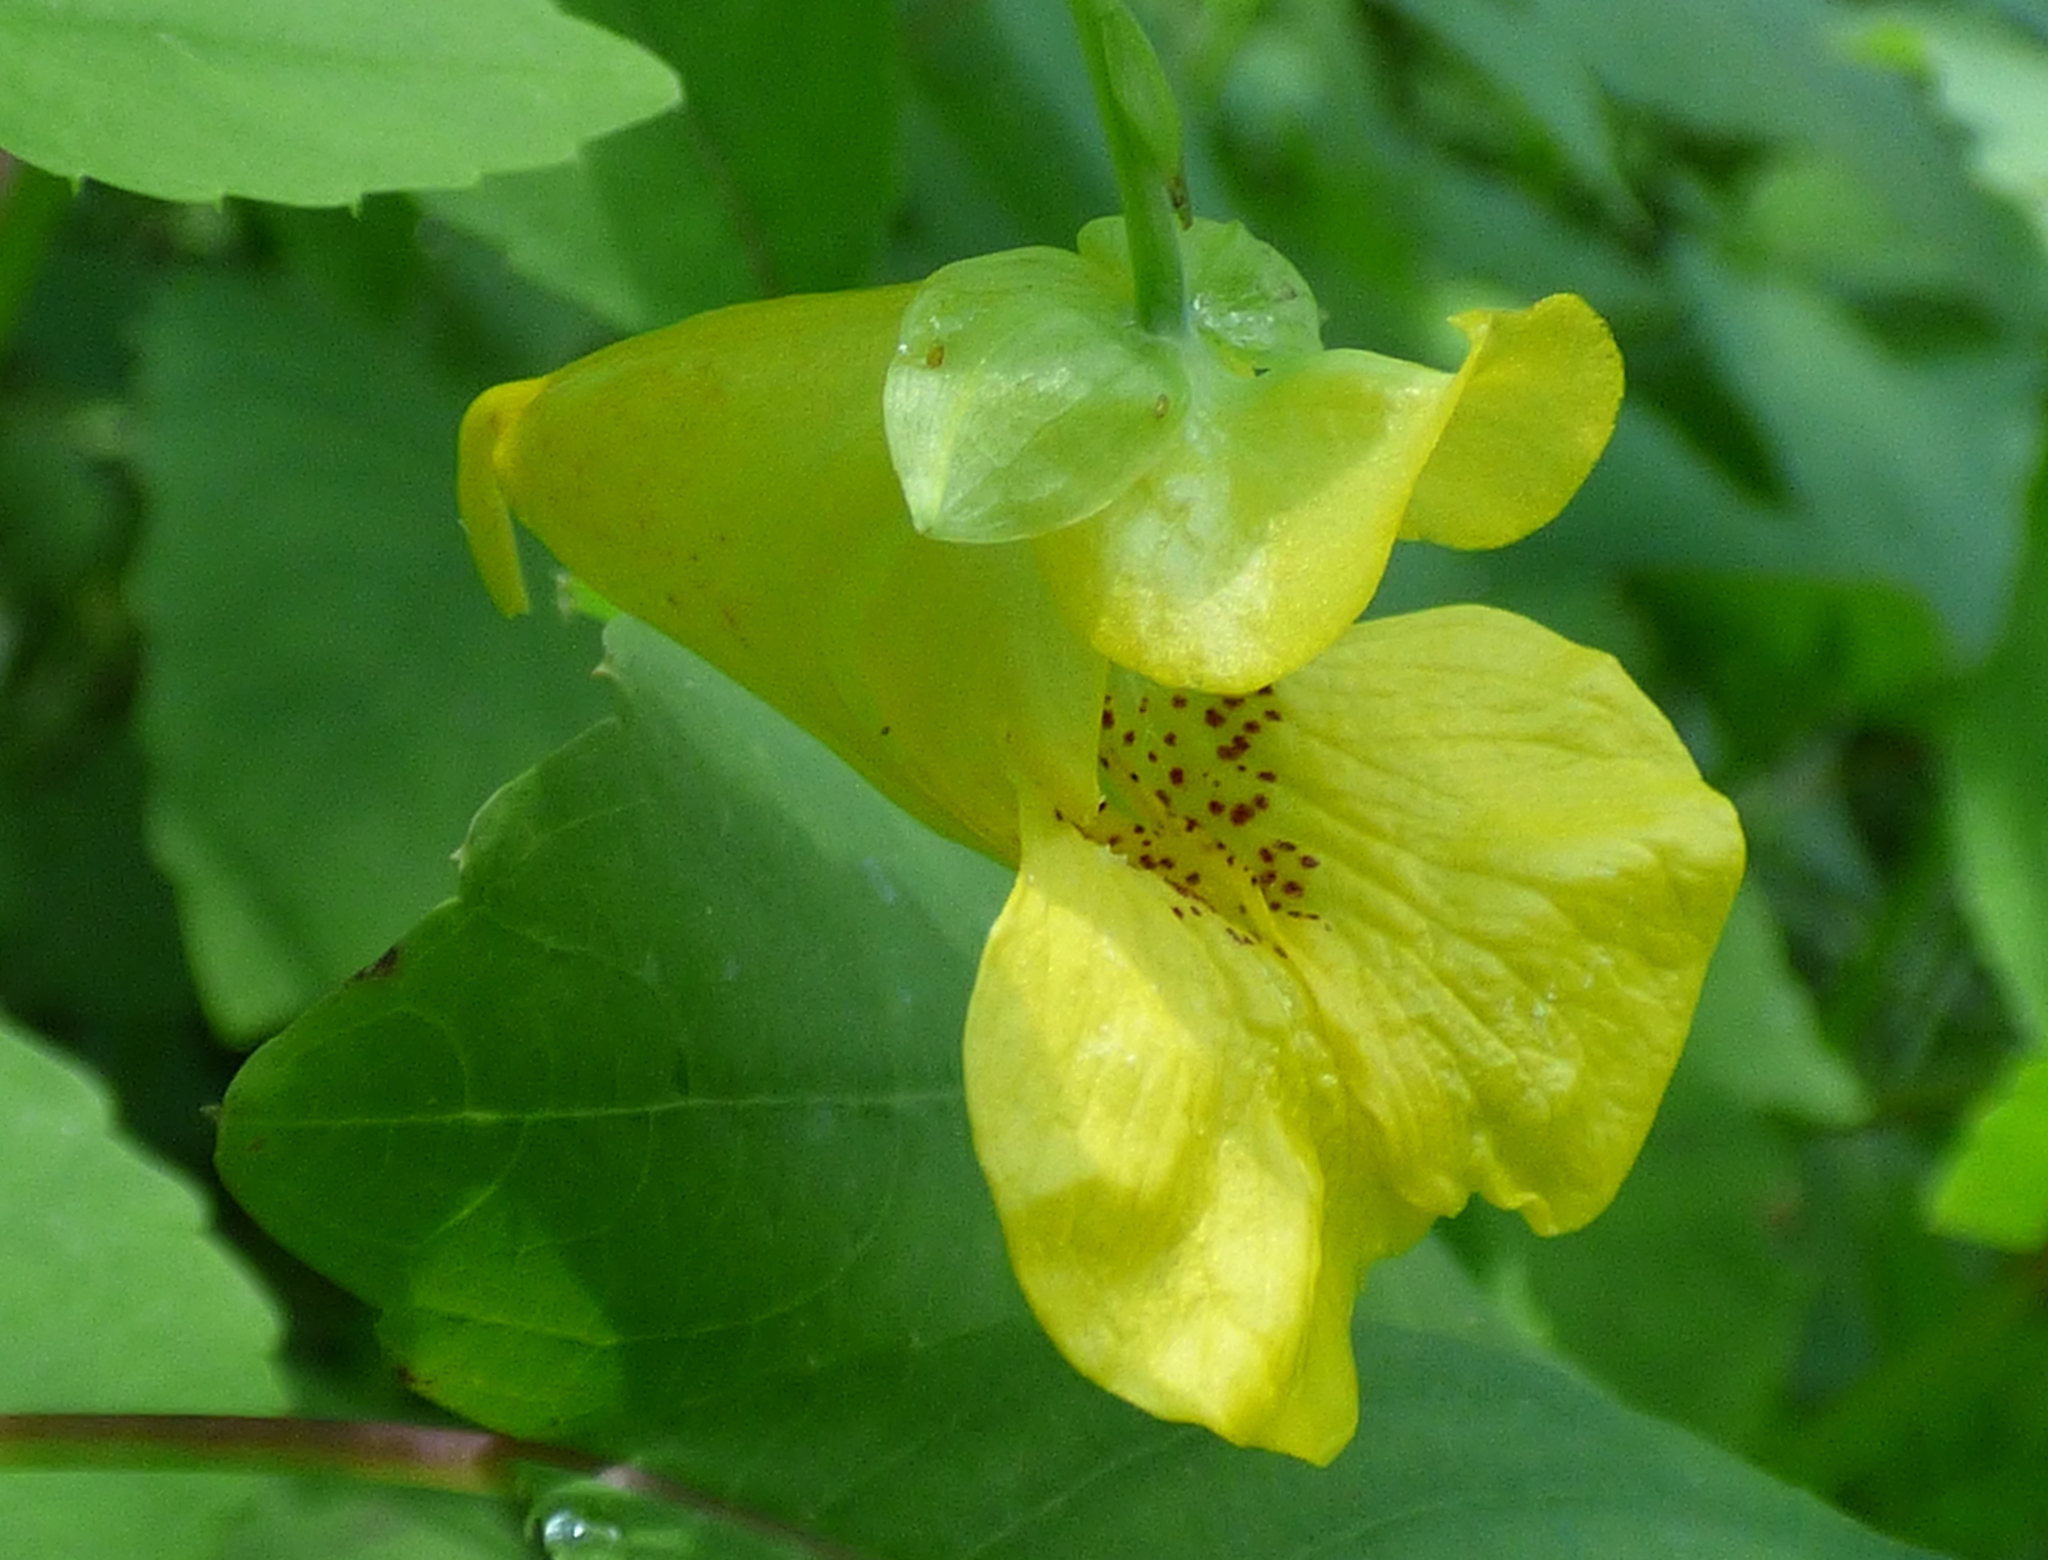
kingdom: Plantae
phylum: Tracheophyta
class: Magnoliopsida
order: Ericales
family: Balsaminaceae
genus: Impatiens
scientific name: Impatiens pallida
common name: Pale snapweed
